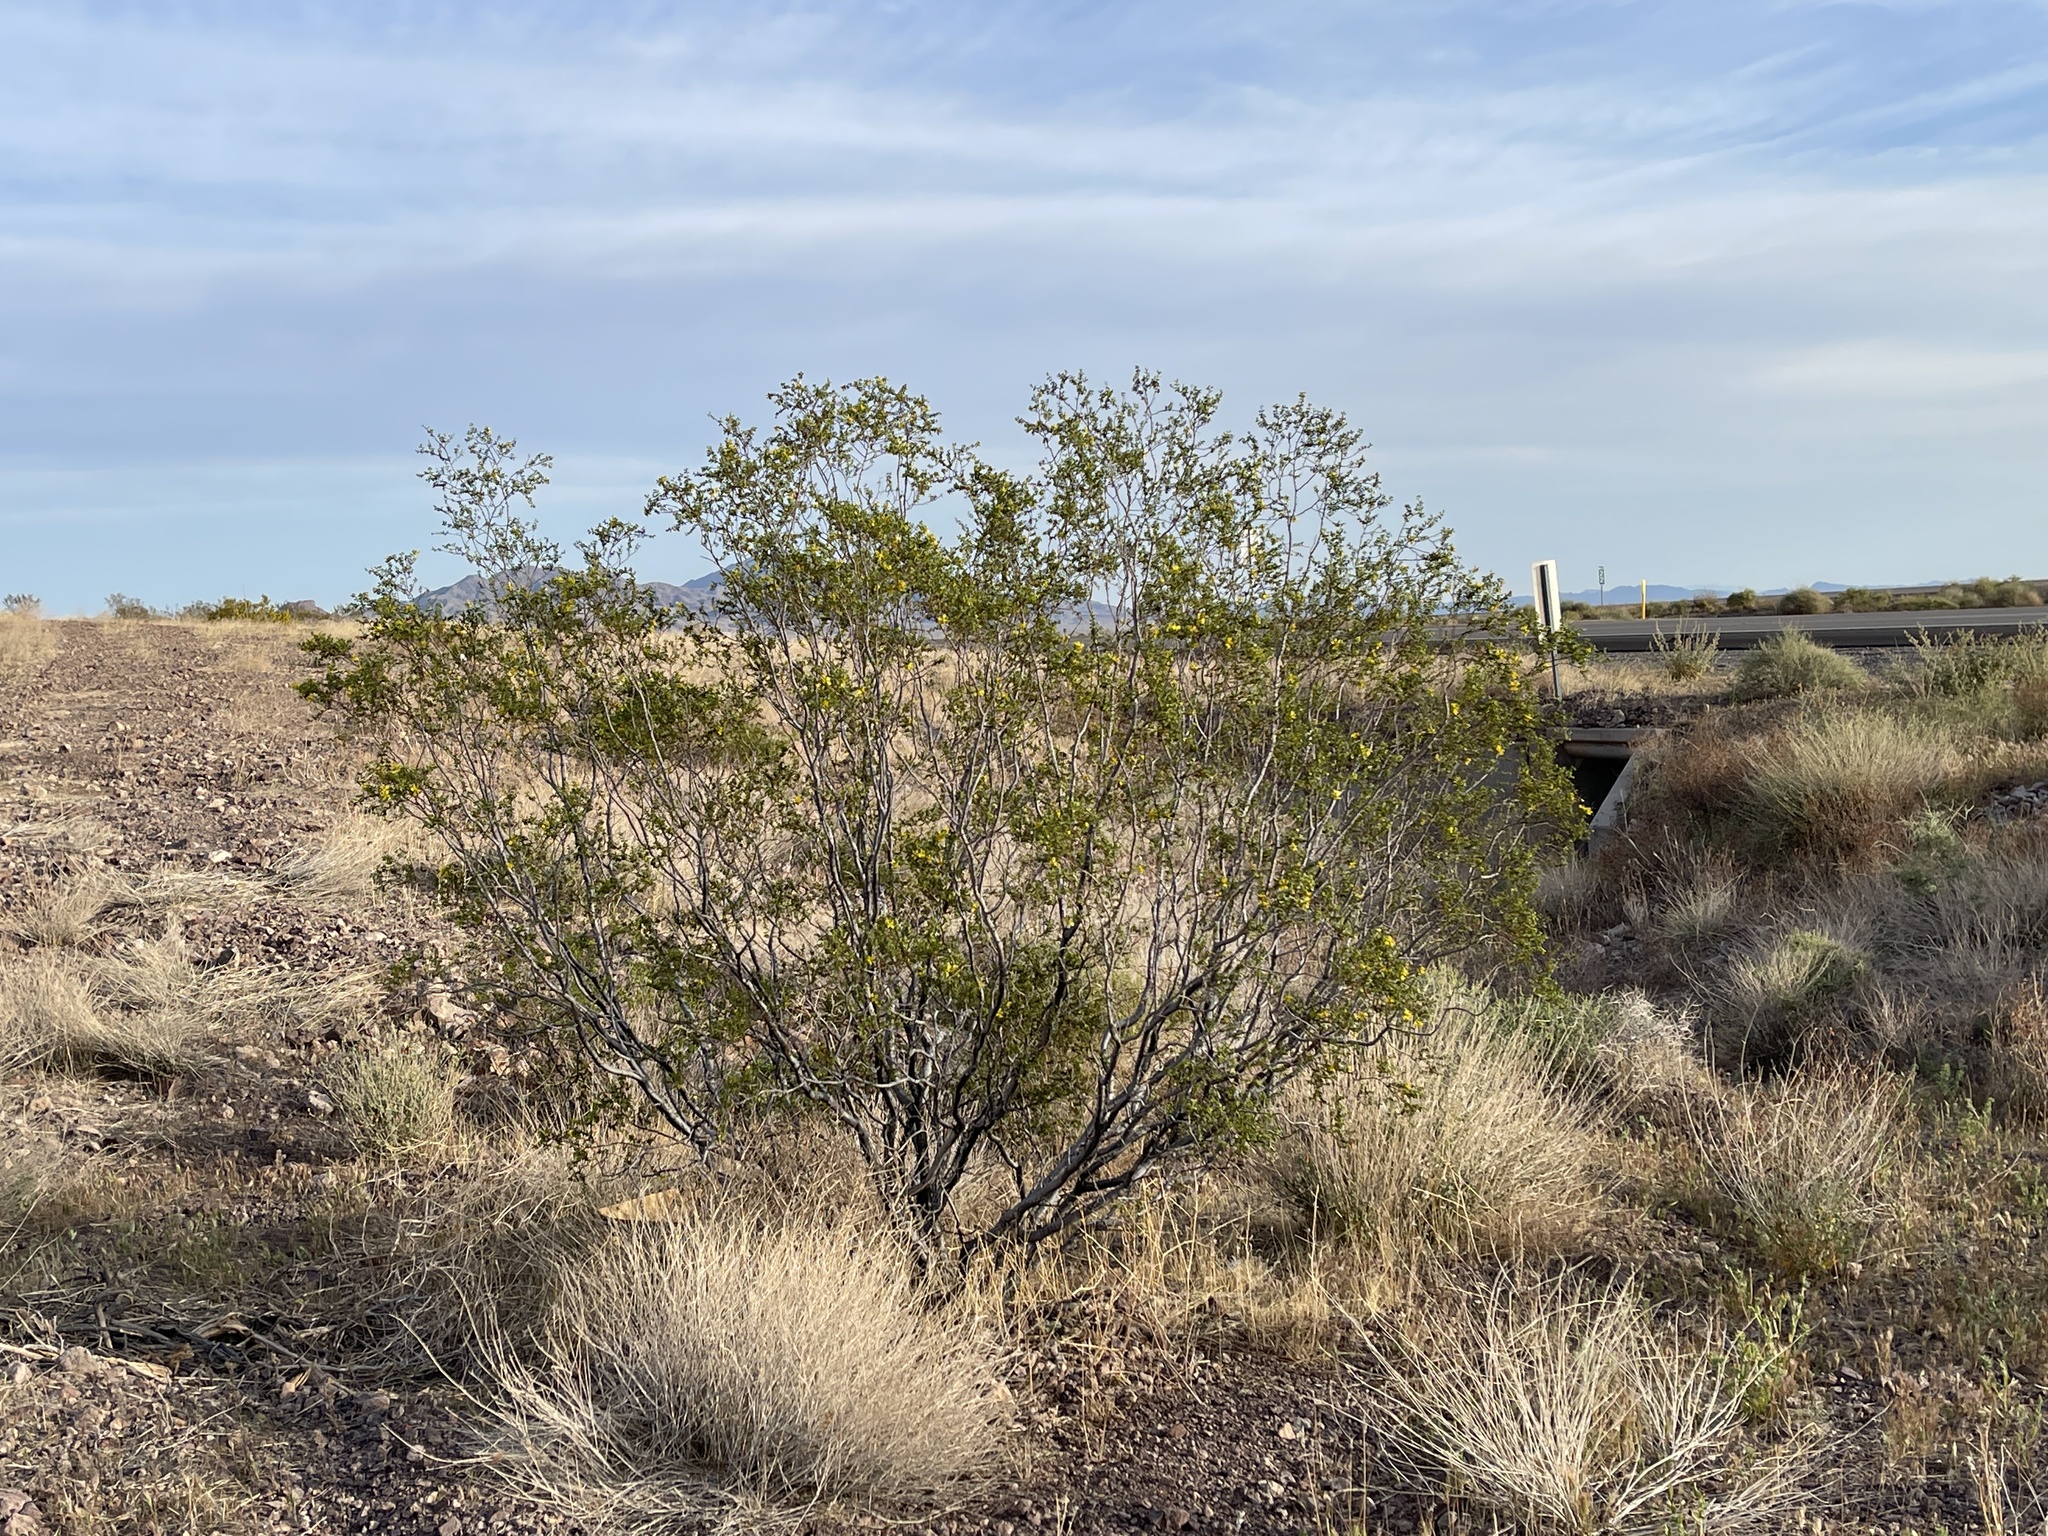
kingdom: Plantae
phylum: Tracheophyta
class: Magnoliopsida
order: Zygophyllales
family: Zygophyllaceae
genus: Larrea
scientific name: Larrea tridentata
